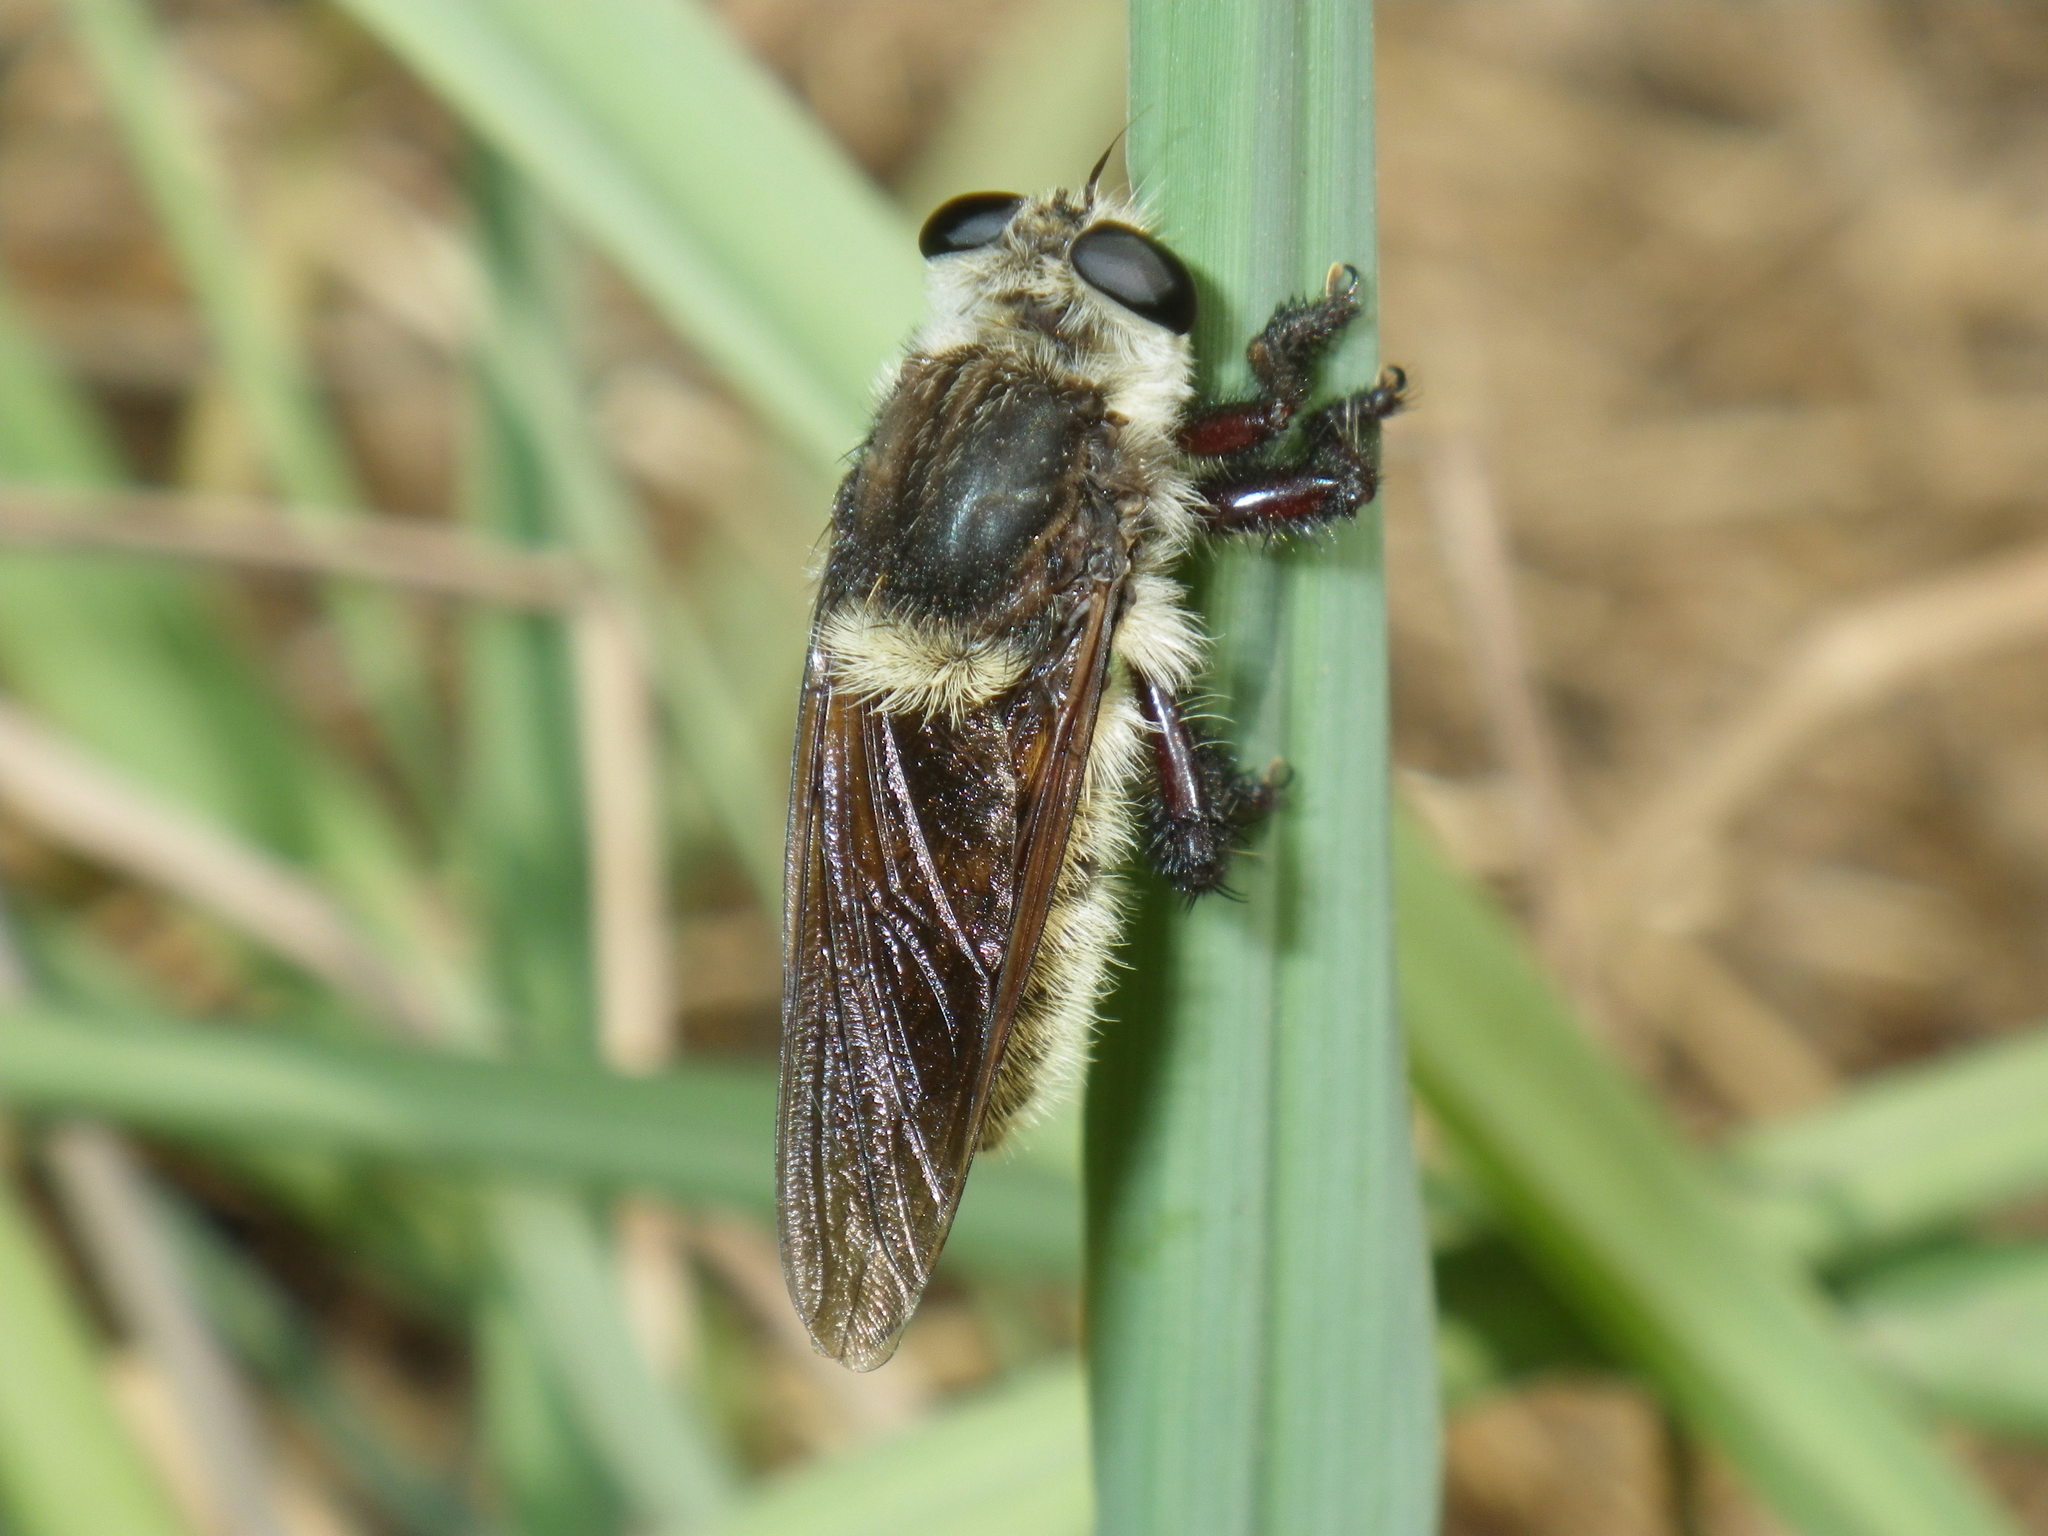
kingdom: Animalia
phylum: Arthropoda
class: Insecta
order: Diptera
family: Asilidae
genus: Mallophora
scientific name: Mallophora fautrix
